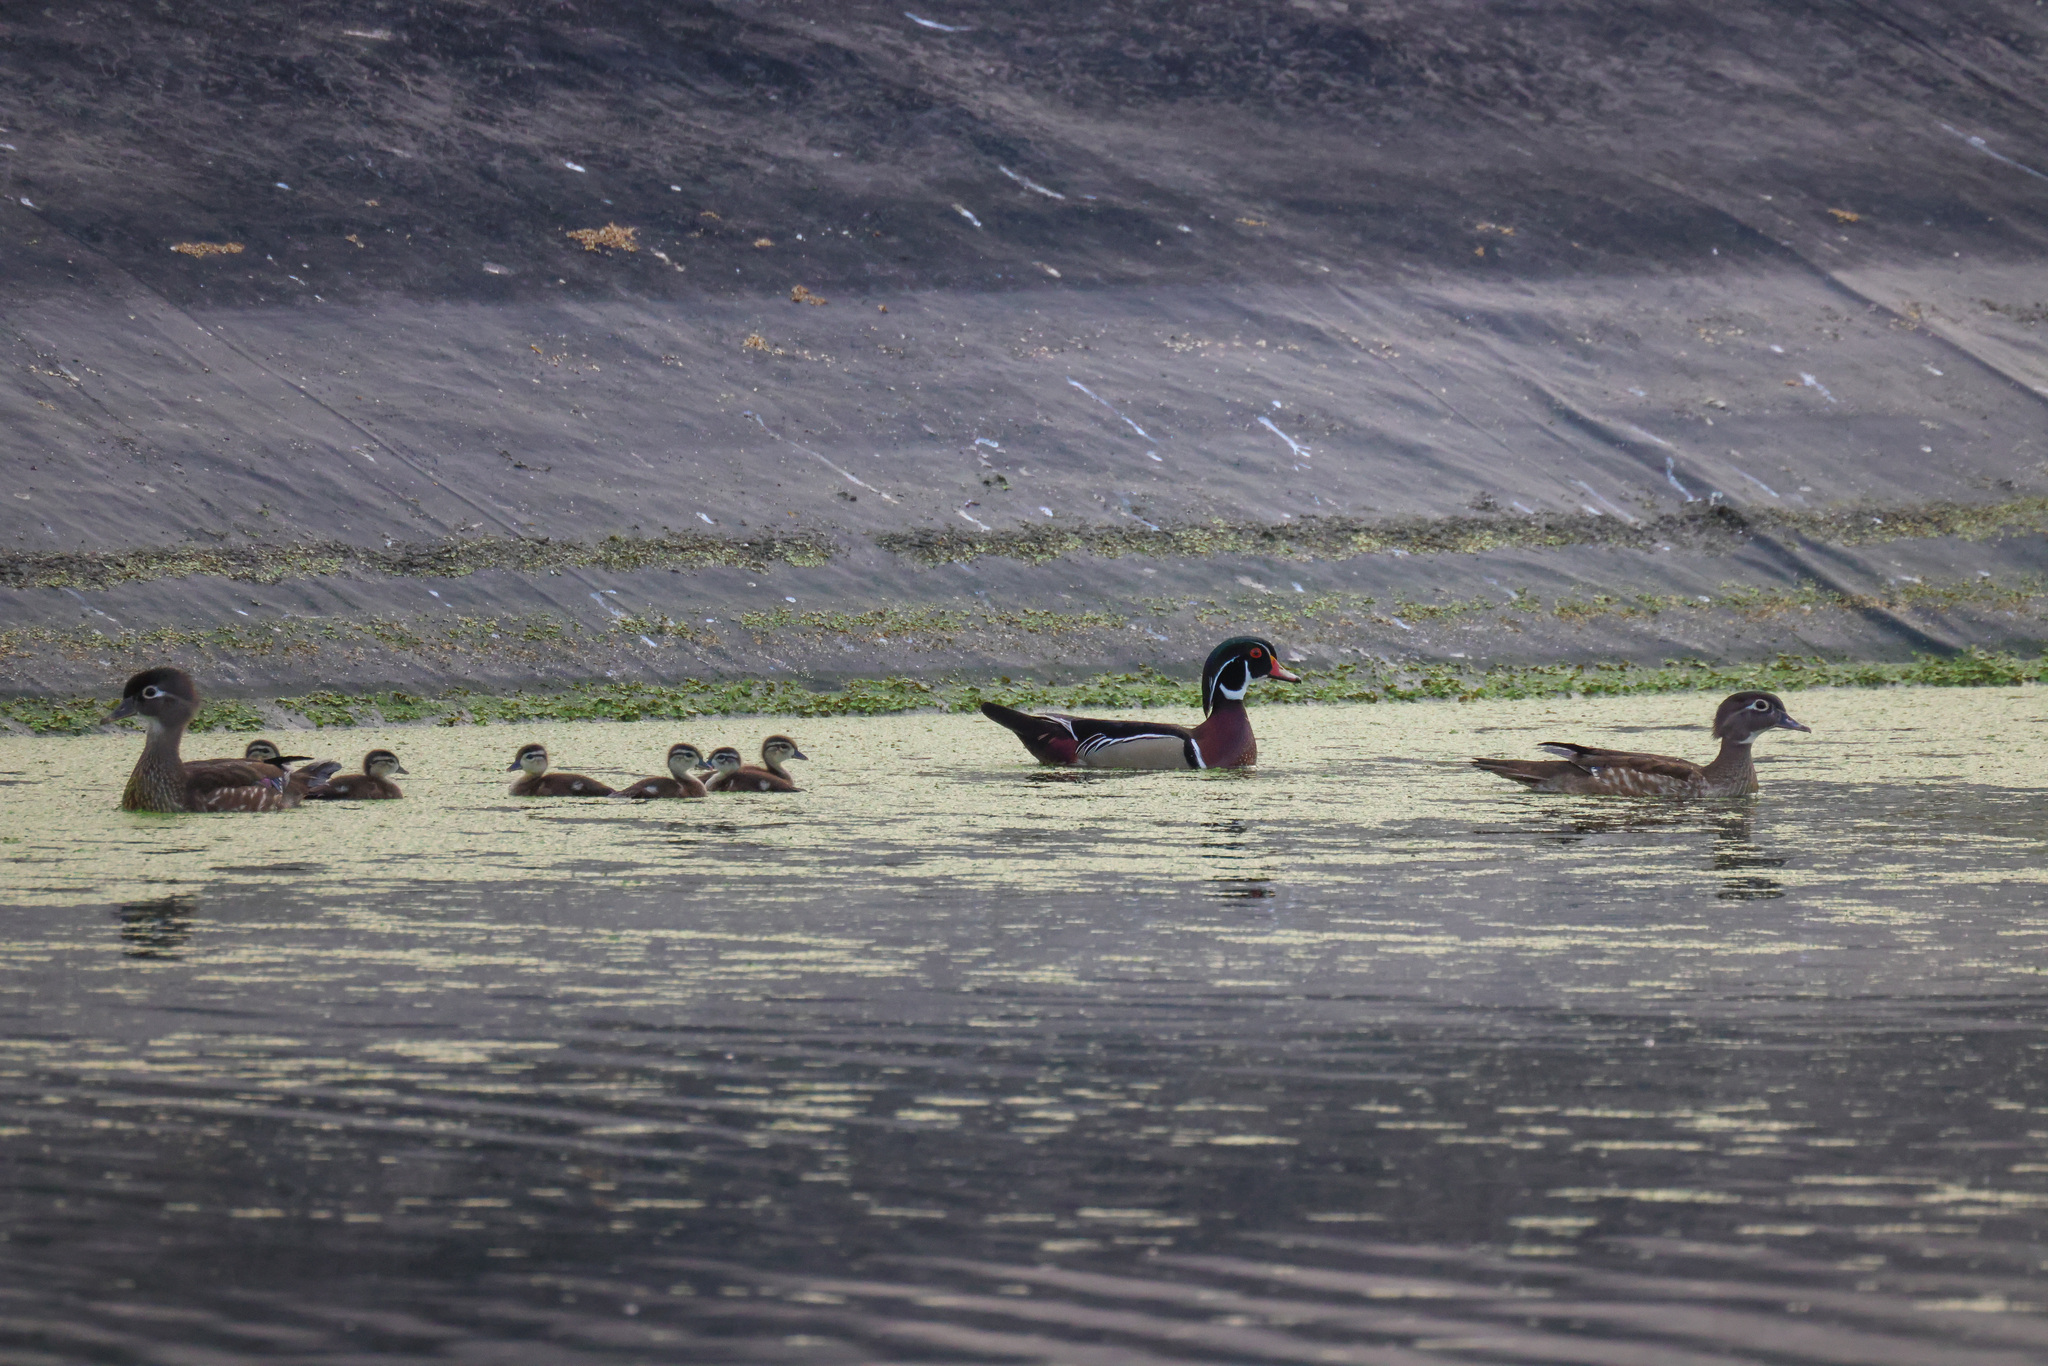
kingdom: Animalia
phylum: Chordata
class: Aves
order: Anseriformes
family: Anatidae
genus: Aix
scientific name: Aix sponsa
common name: Wood duck
